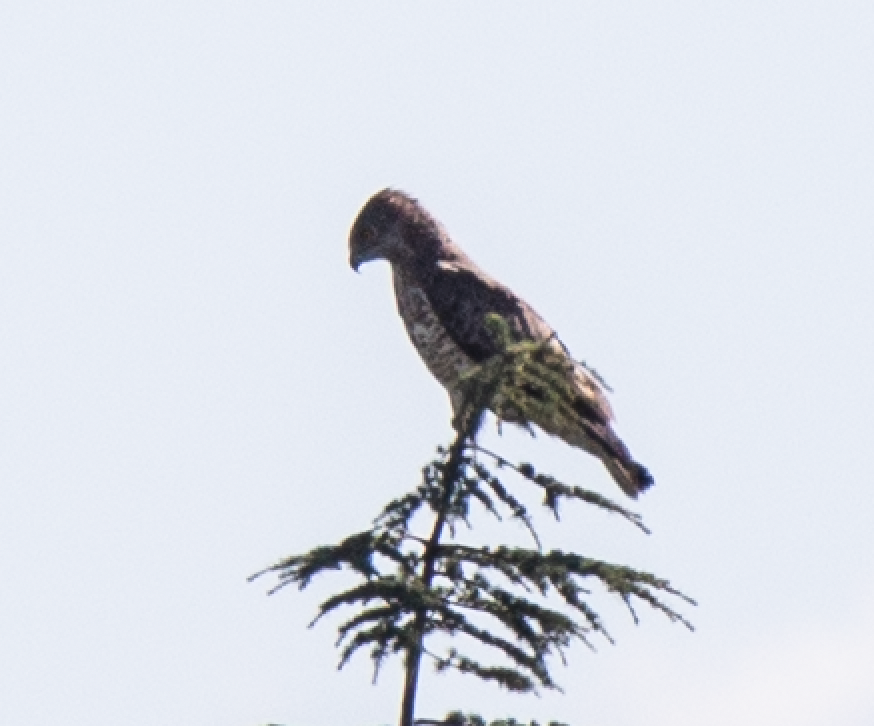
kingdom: Animalia
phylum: Chordata
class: Aves
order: Accipitriformes
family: Accipitridae
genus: Circaetus
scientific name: Circaetus gallicus
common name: Short-toed snake eagle
